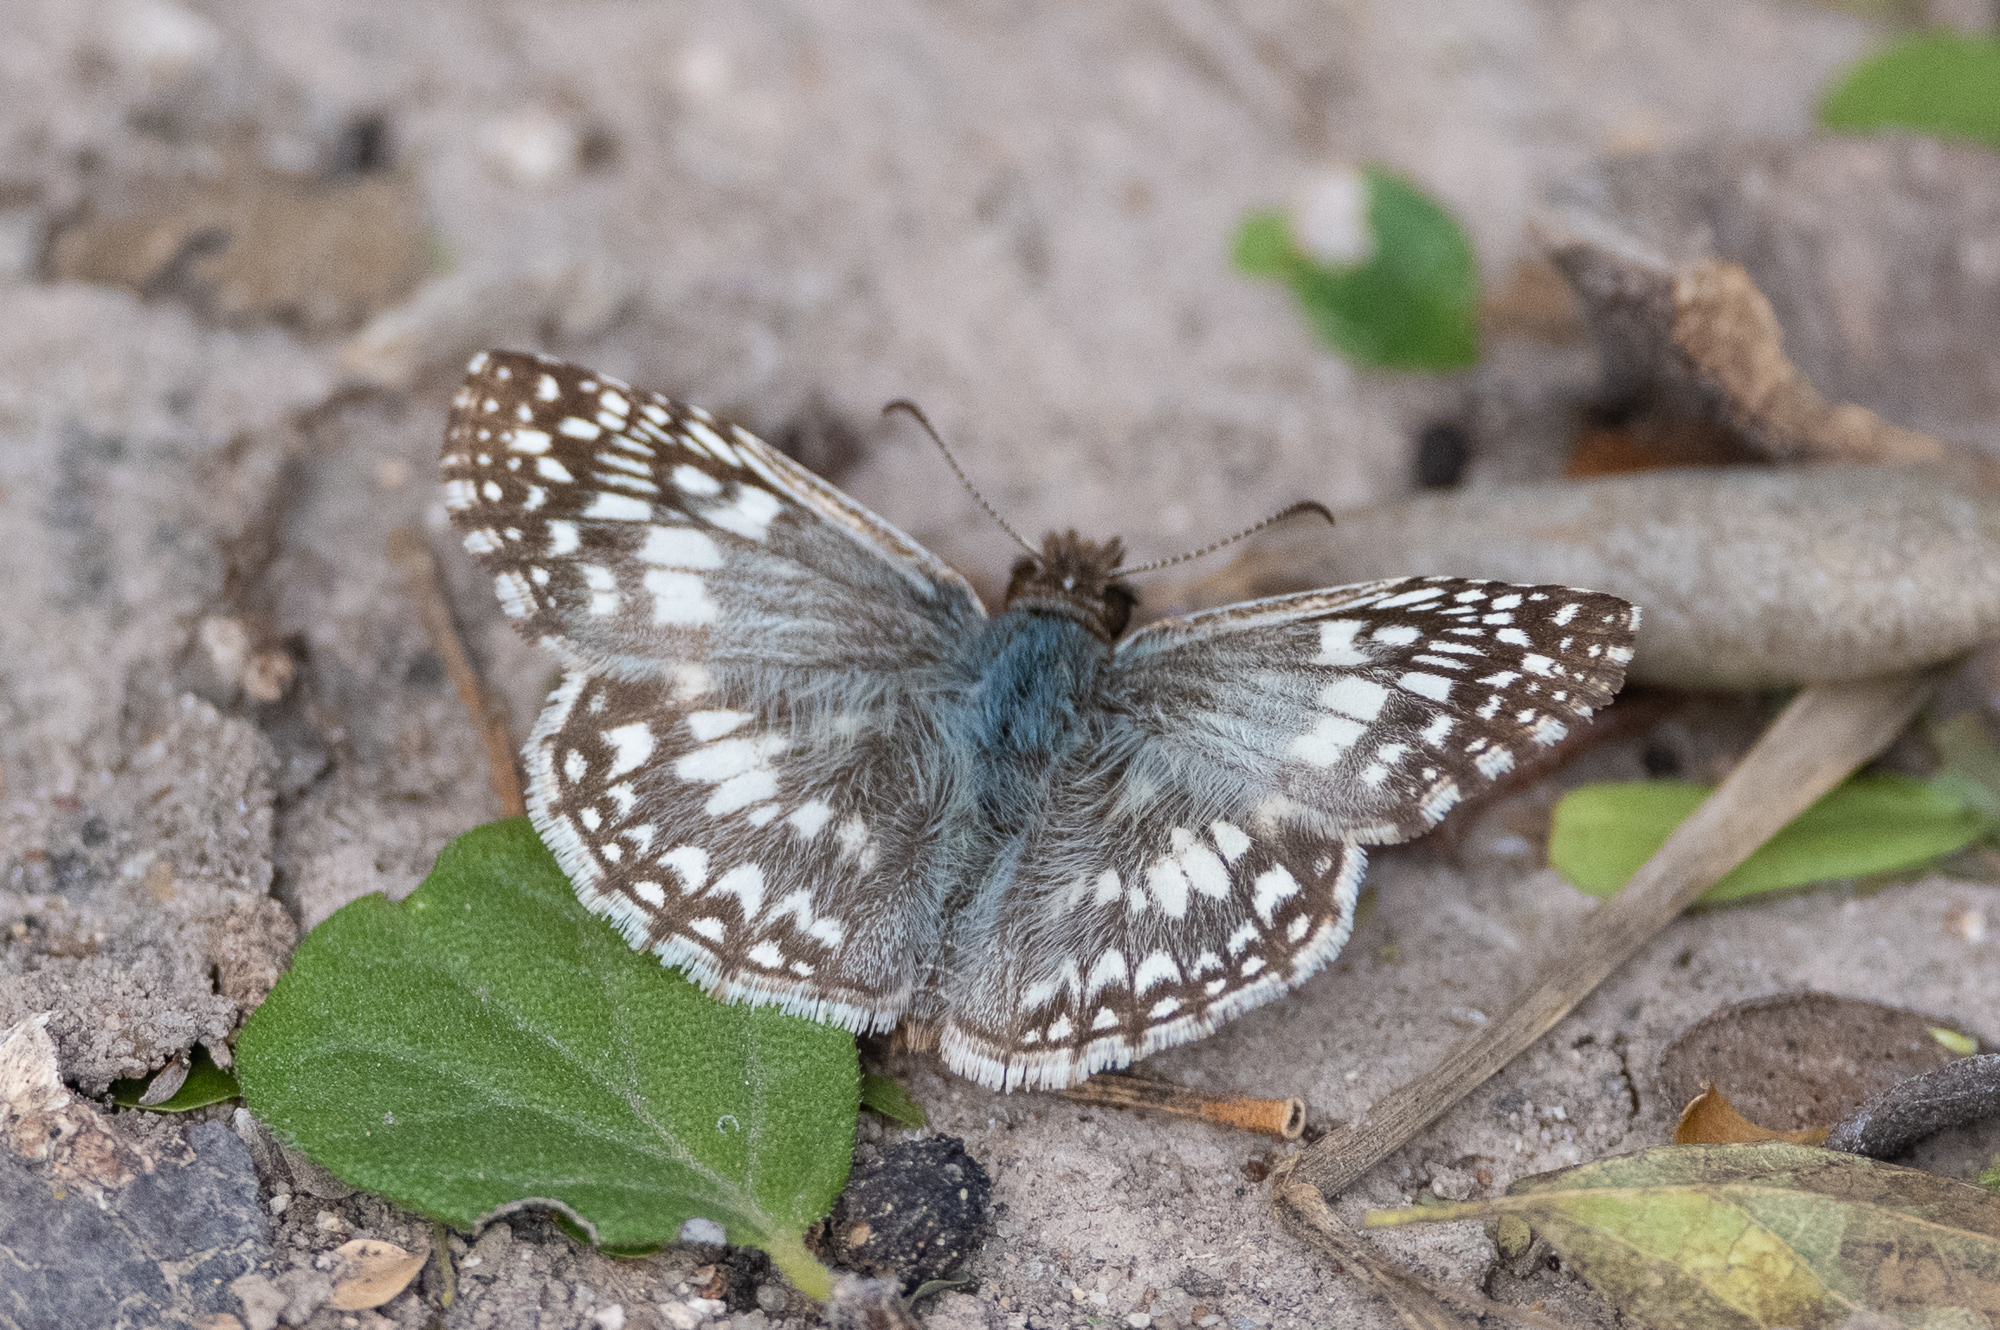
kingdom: Animalia
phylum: Arthropoda
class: Insecta
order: Lepidoptera
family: Hesperiidae
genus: Pyrgus
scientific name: Pyrgus oileus
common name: Tropical checkered-skipper
